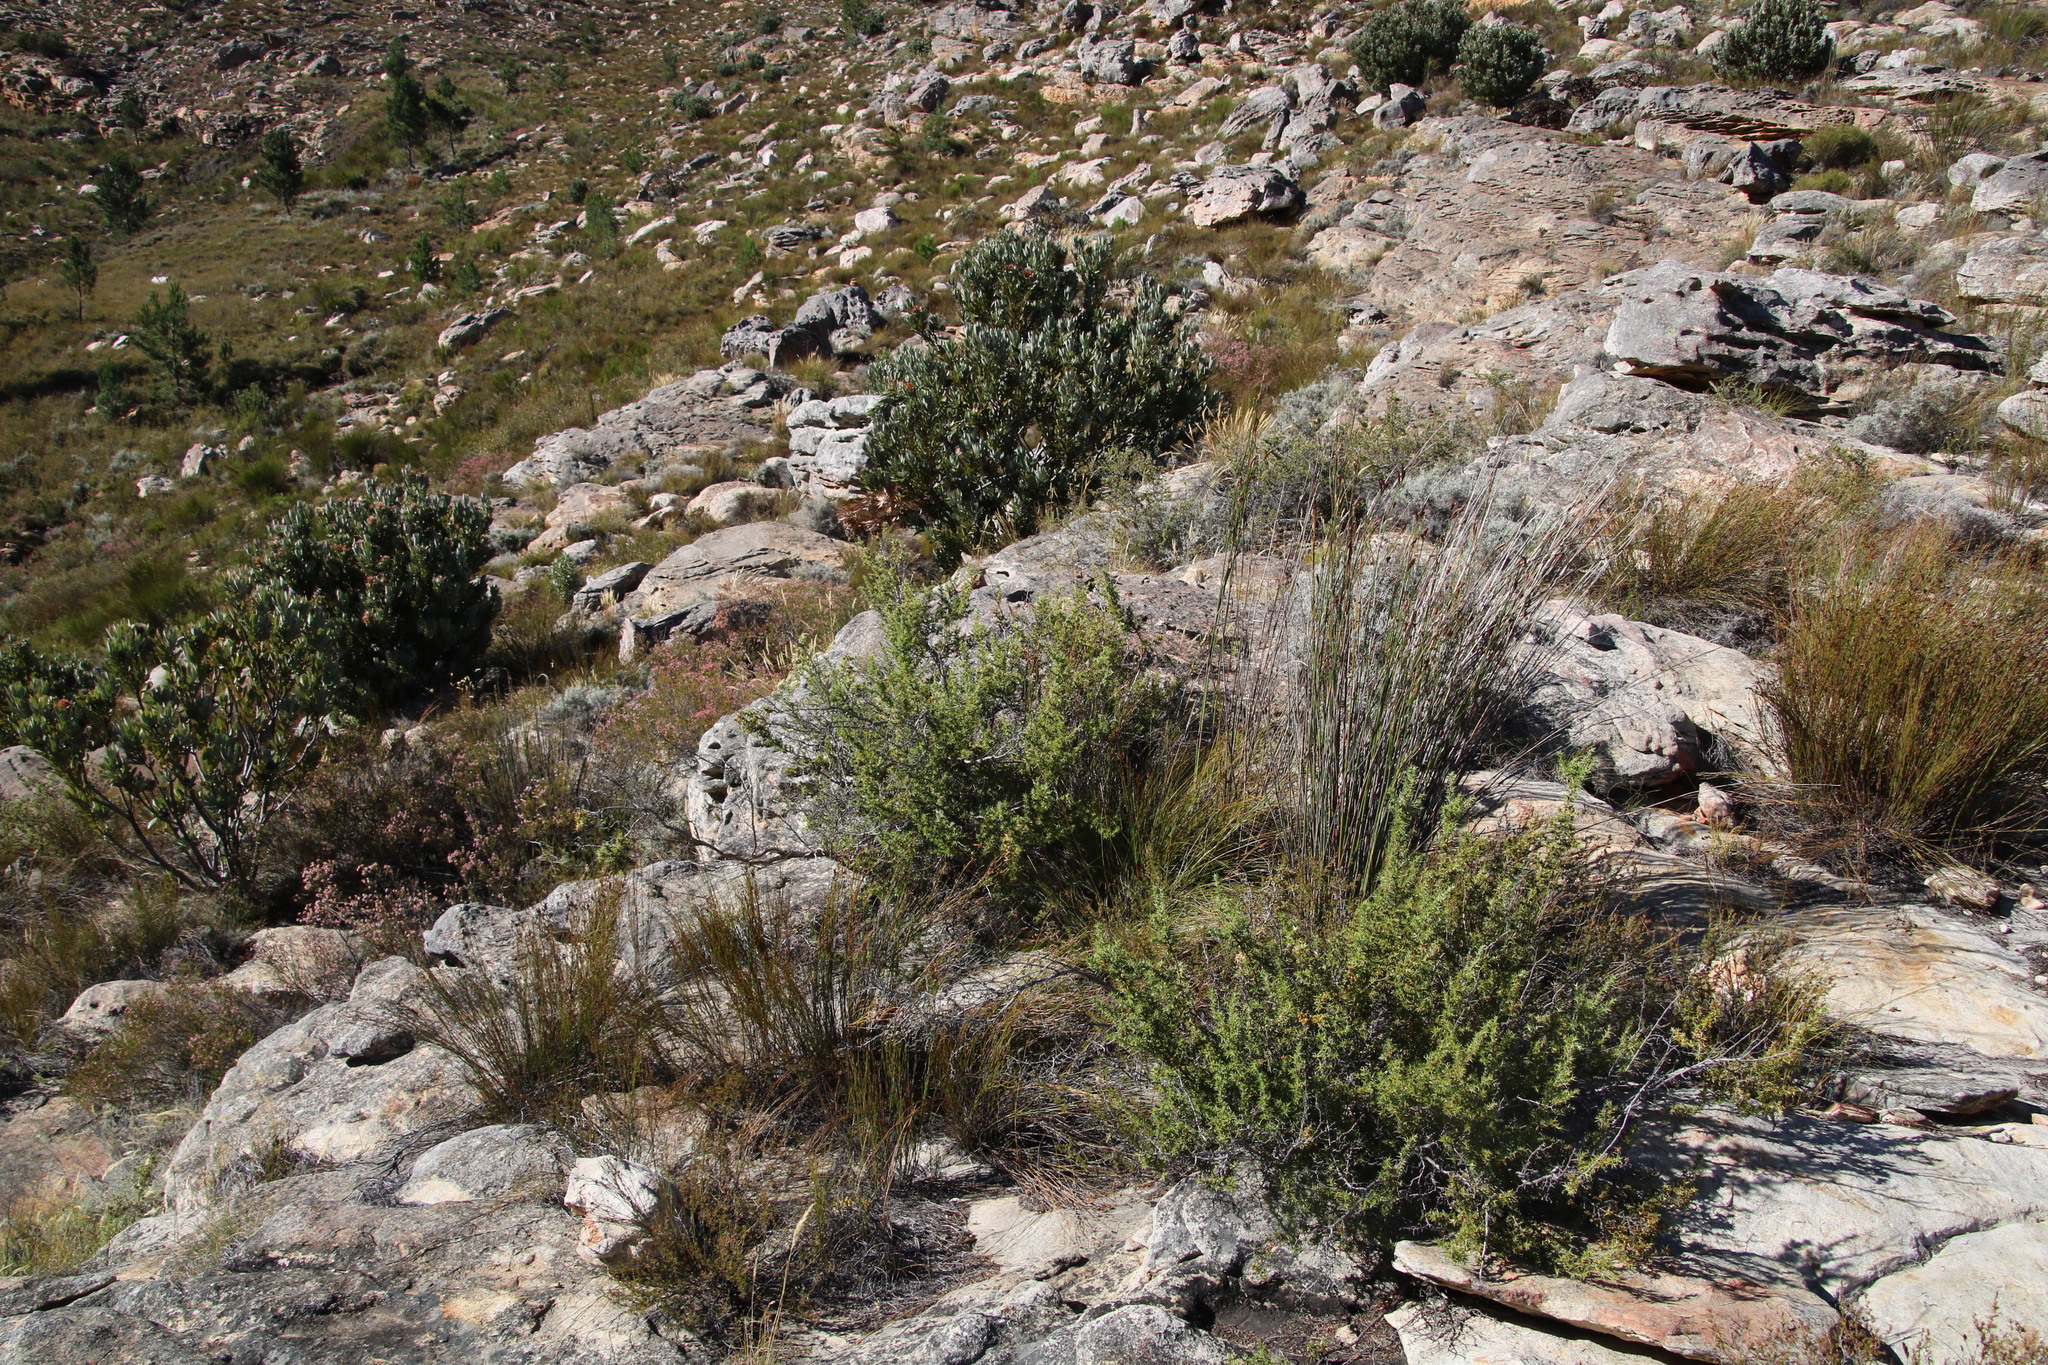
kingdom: Plantae
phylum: Tracheophyta
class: Magnoliopsida
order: Rosales
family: Rosaceae
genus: Cliffortia
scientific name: Cliffortia ruscifolia
